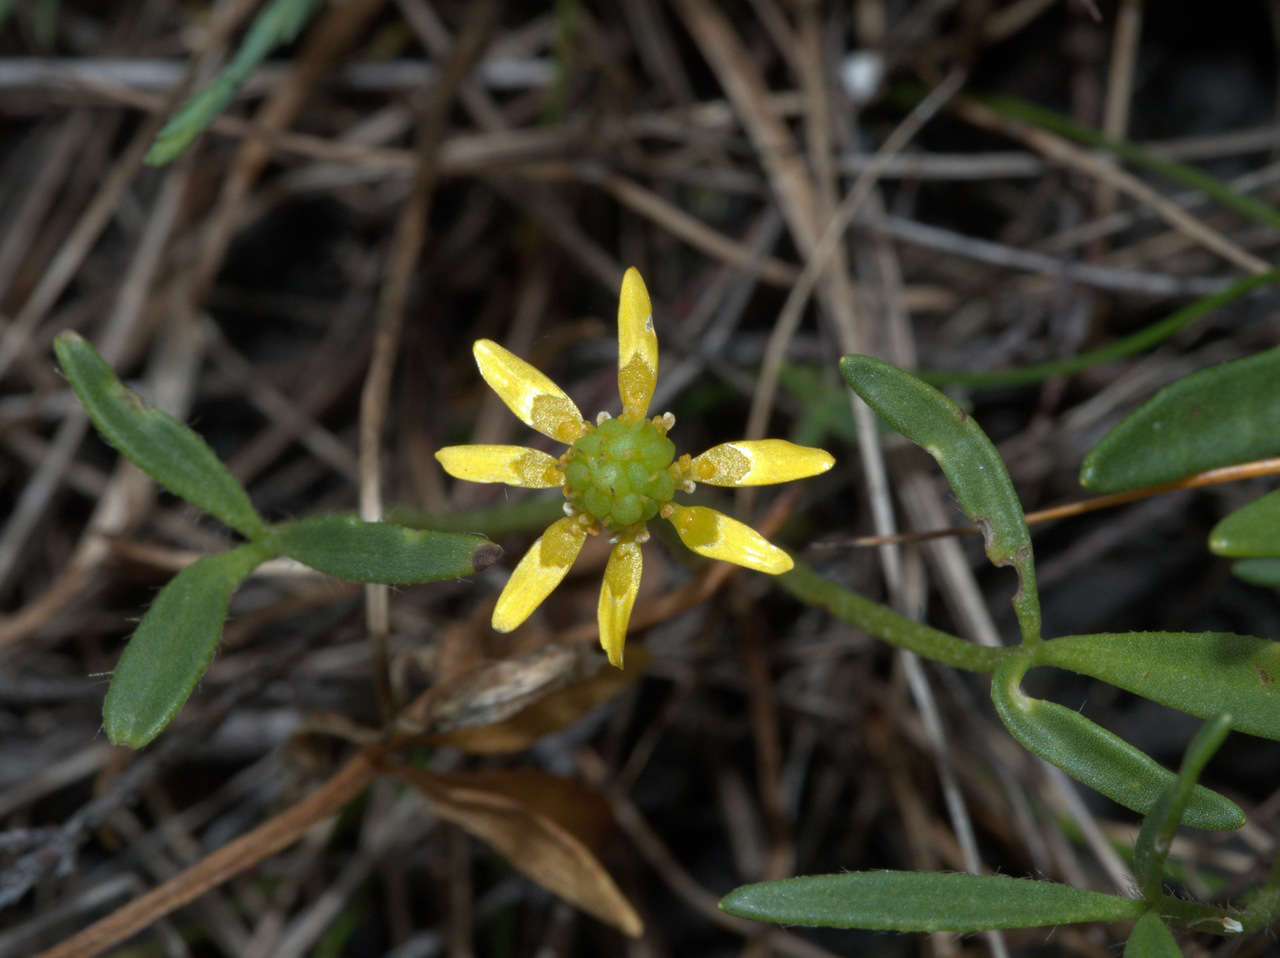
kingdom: Plantae
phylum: Tracheophyta
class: Magnoliopsida
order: Ranunculales
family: Ranunculaceae
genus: Ranunculus
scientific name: Ranunculus diminutus
